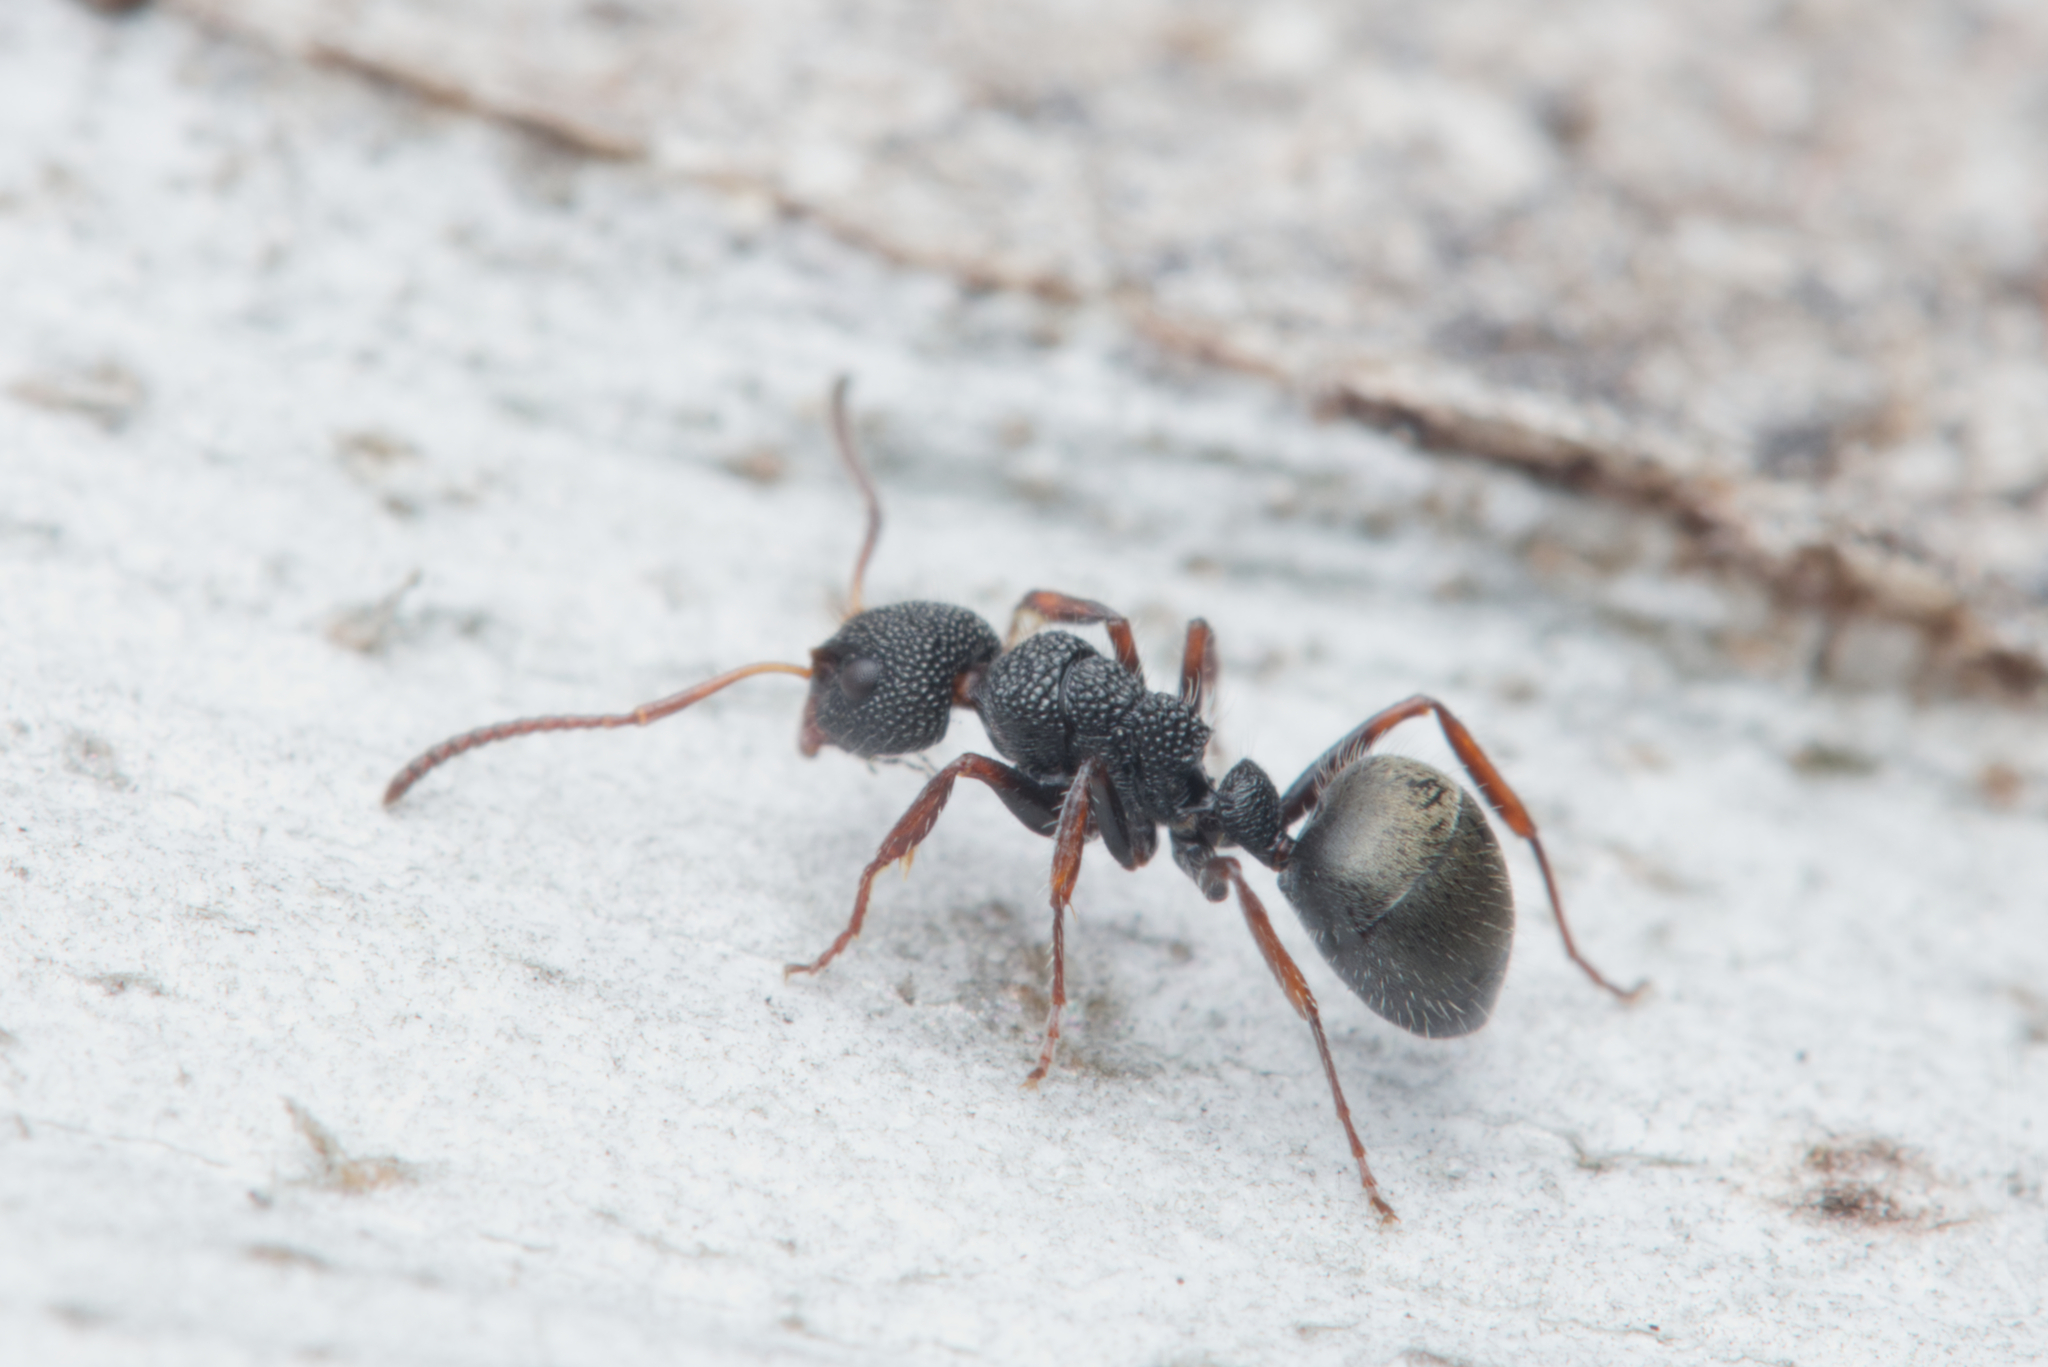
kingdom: Animalia
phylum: Arthropoda
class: Insecta
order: Hymenoptera
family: Formicidae
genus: Dolichoderus
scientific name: Dolichoderus scrobiculatus
